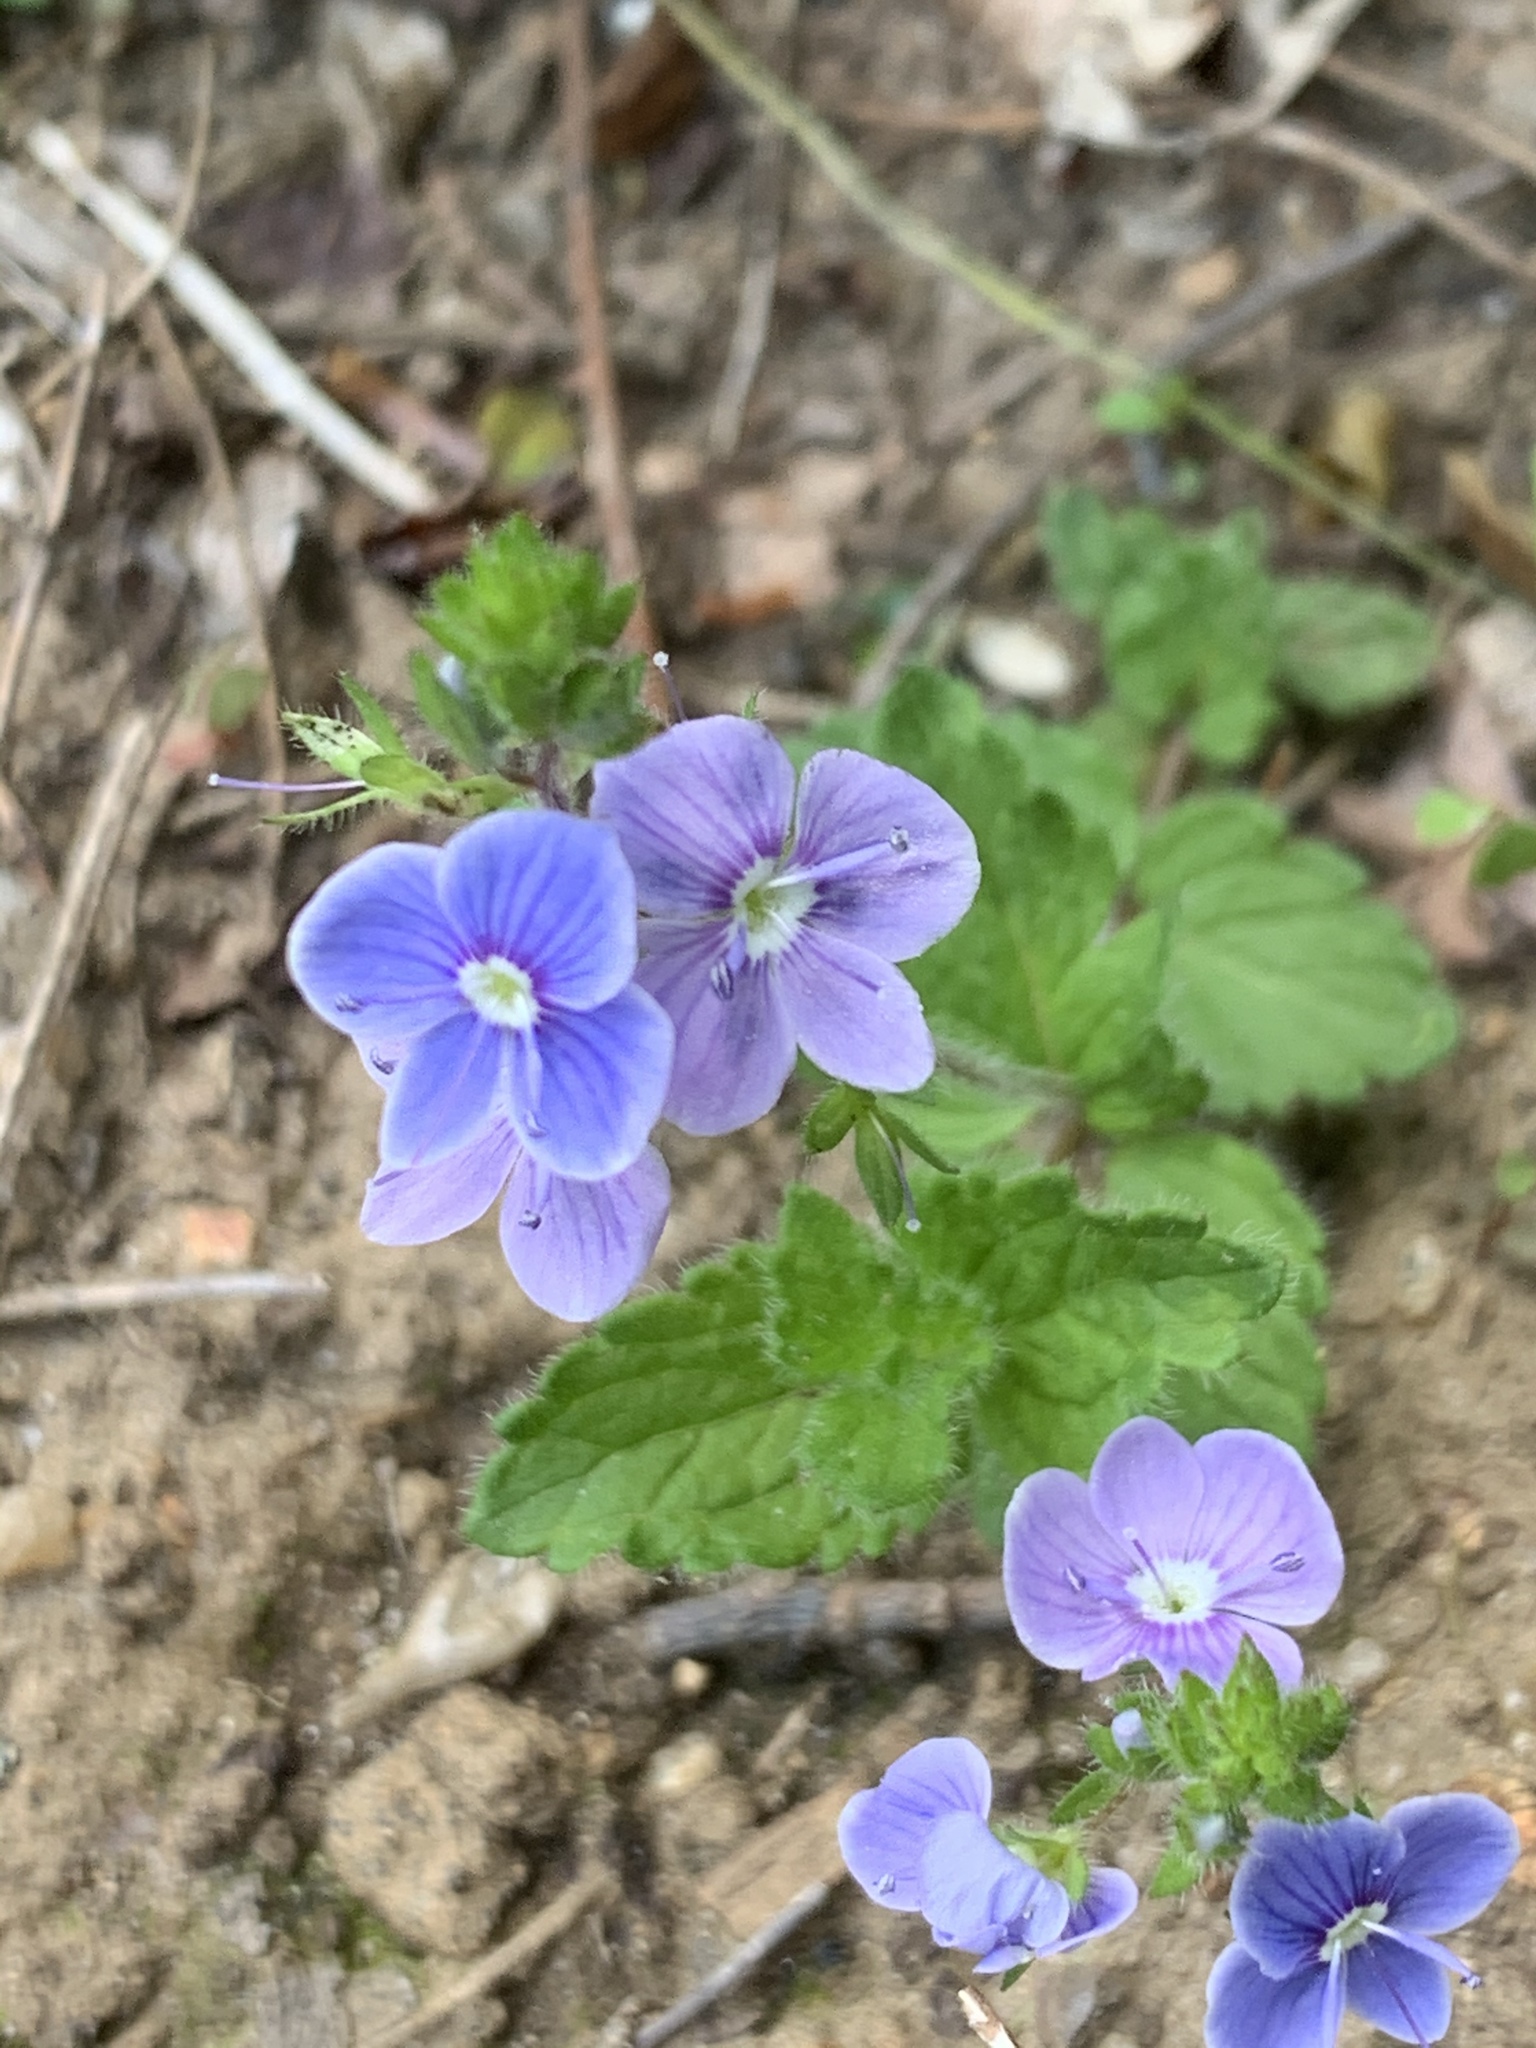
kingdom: Plantae
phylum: Tracheophyta
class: Magnoliopsida
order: Lamiales
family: Plantaginaceae
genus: Veronica
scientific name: Veronica chamaedrys
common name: Germander speedwell
